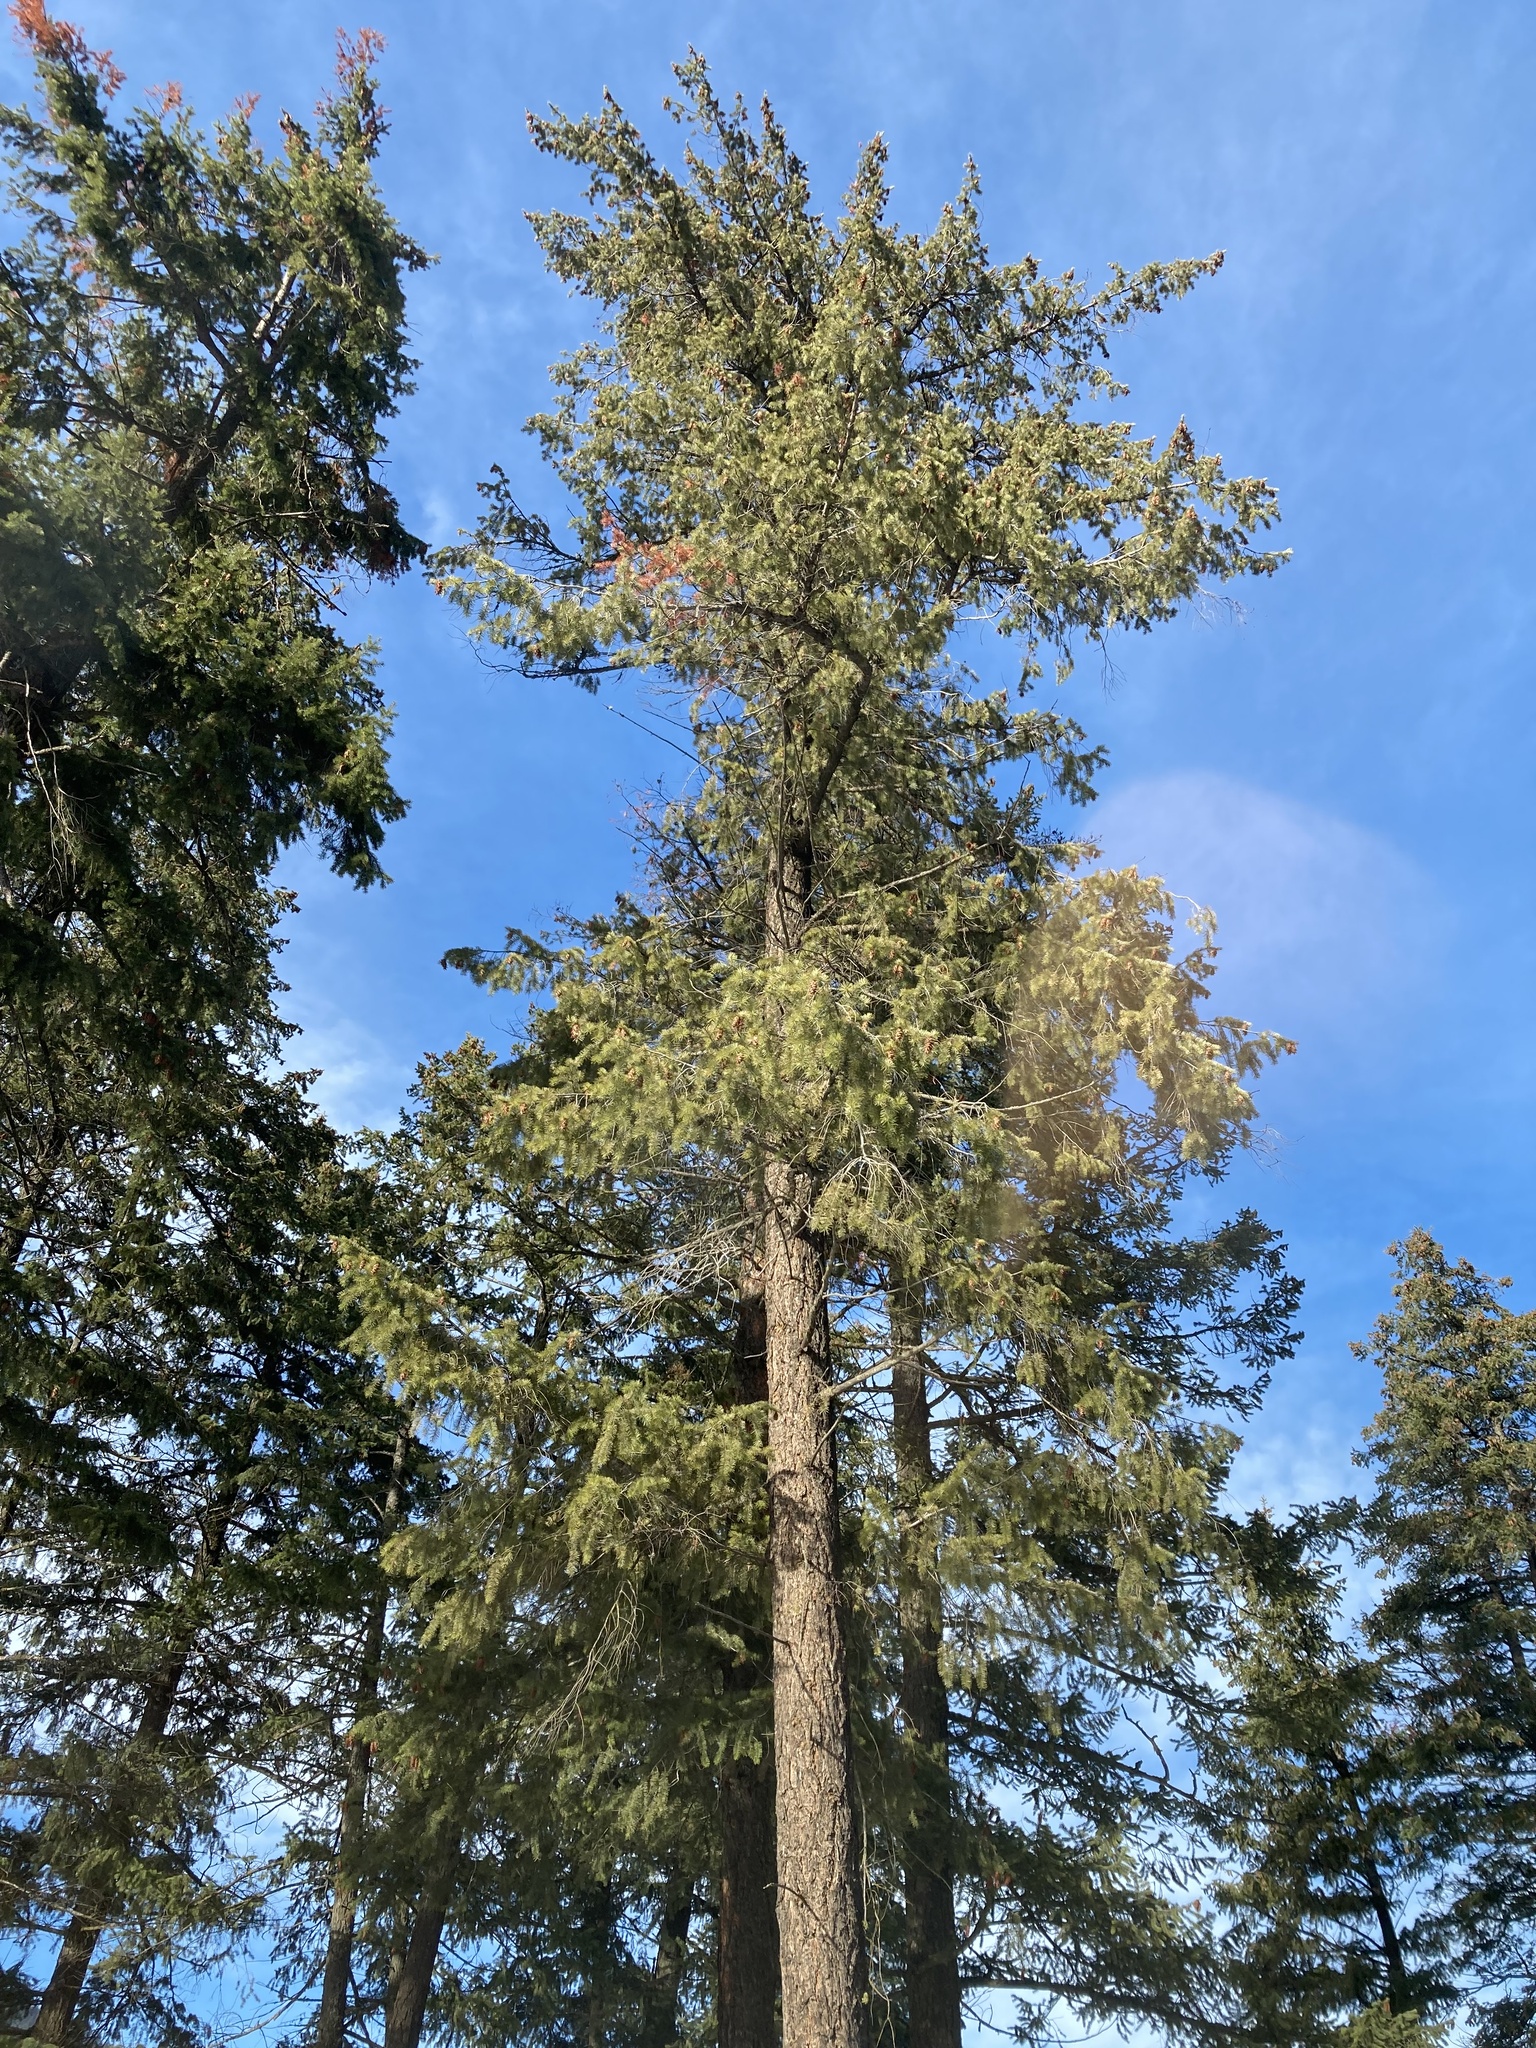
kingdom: Plantae
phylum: Tracheophyta
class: Pinopsida
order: Pinales
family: Pinaceae
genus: Pseudotsuga
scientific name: Pseudotsuga menziesii
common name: Douglas fir
